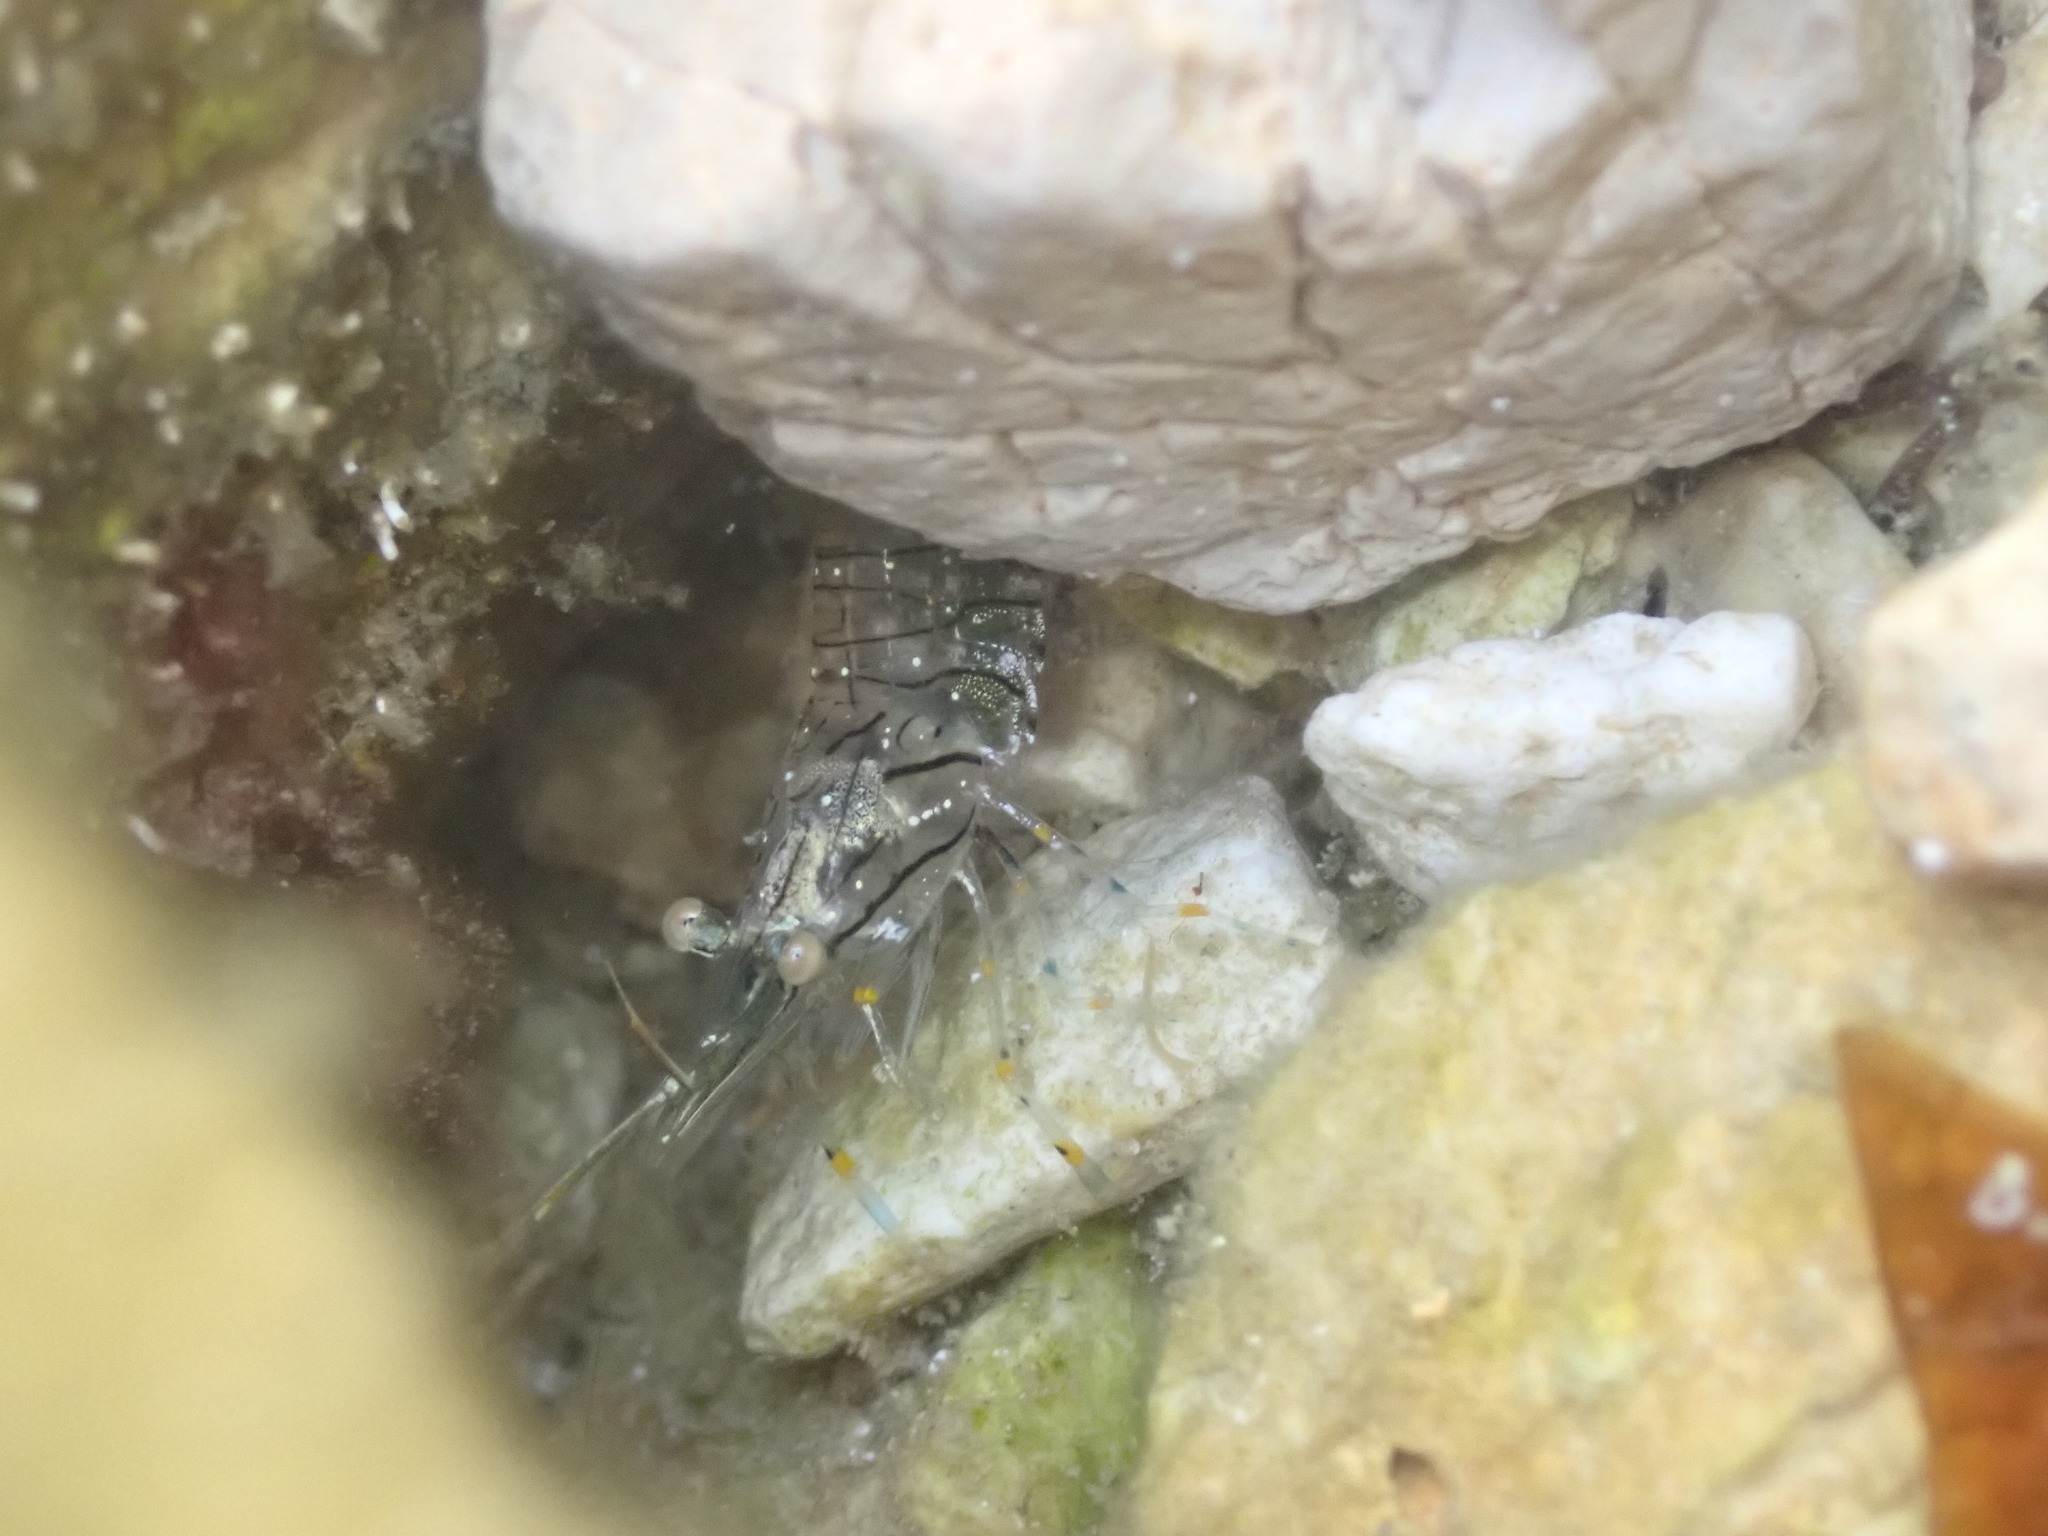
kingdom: Animalia
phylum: Arthropoda
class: Malacostraca
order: Decapoda
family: Palaemonidae
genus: Palaemon
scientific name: Palaemon elegans
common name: Grass prawm
